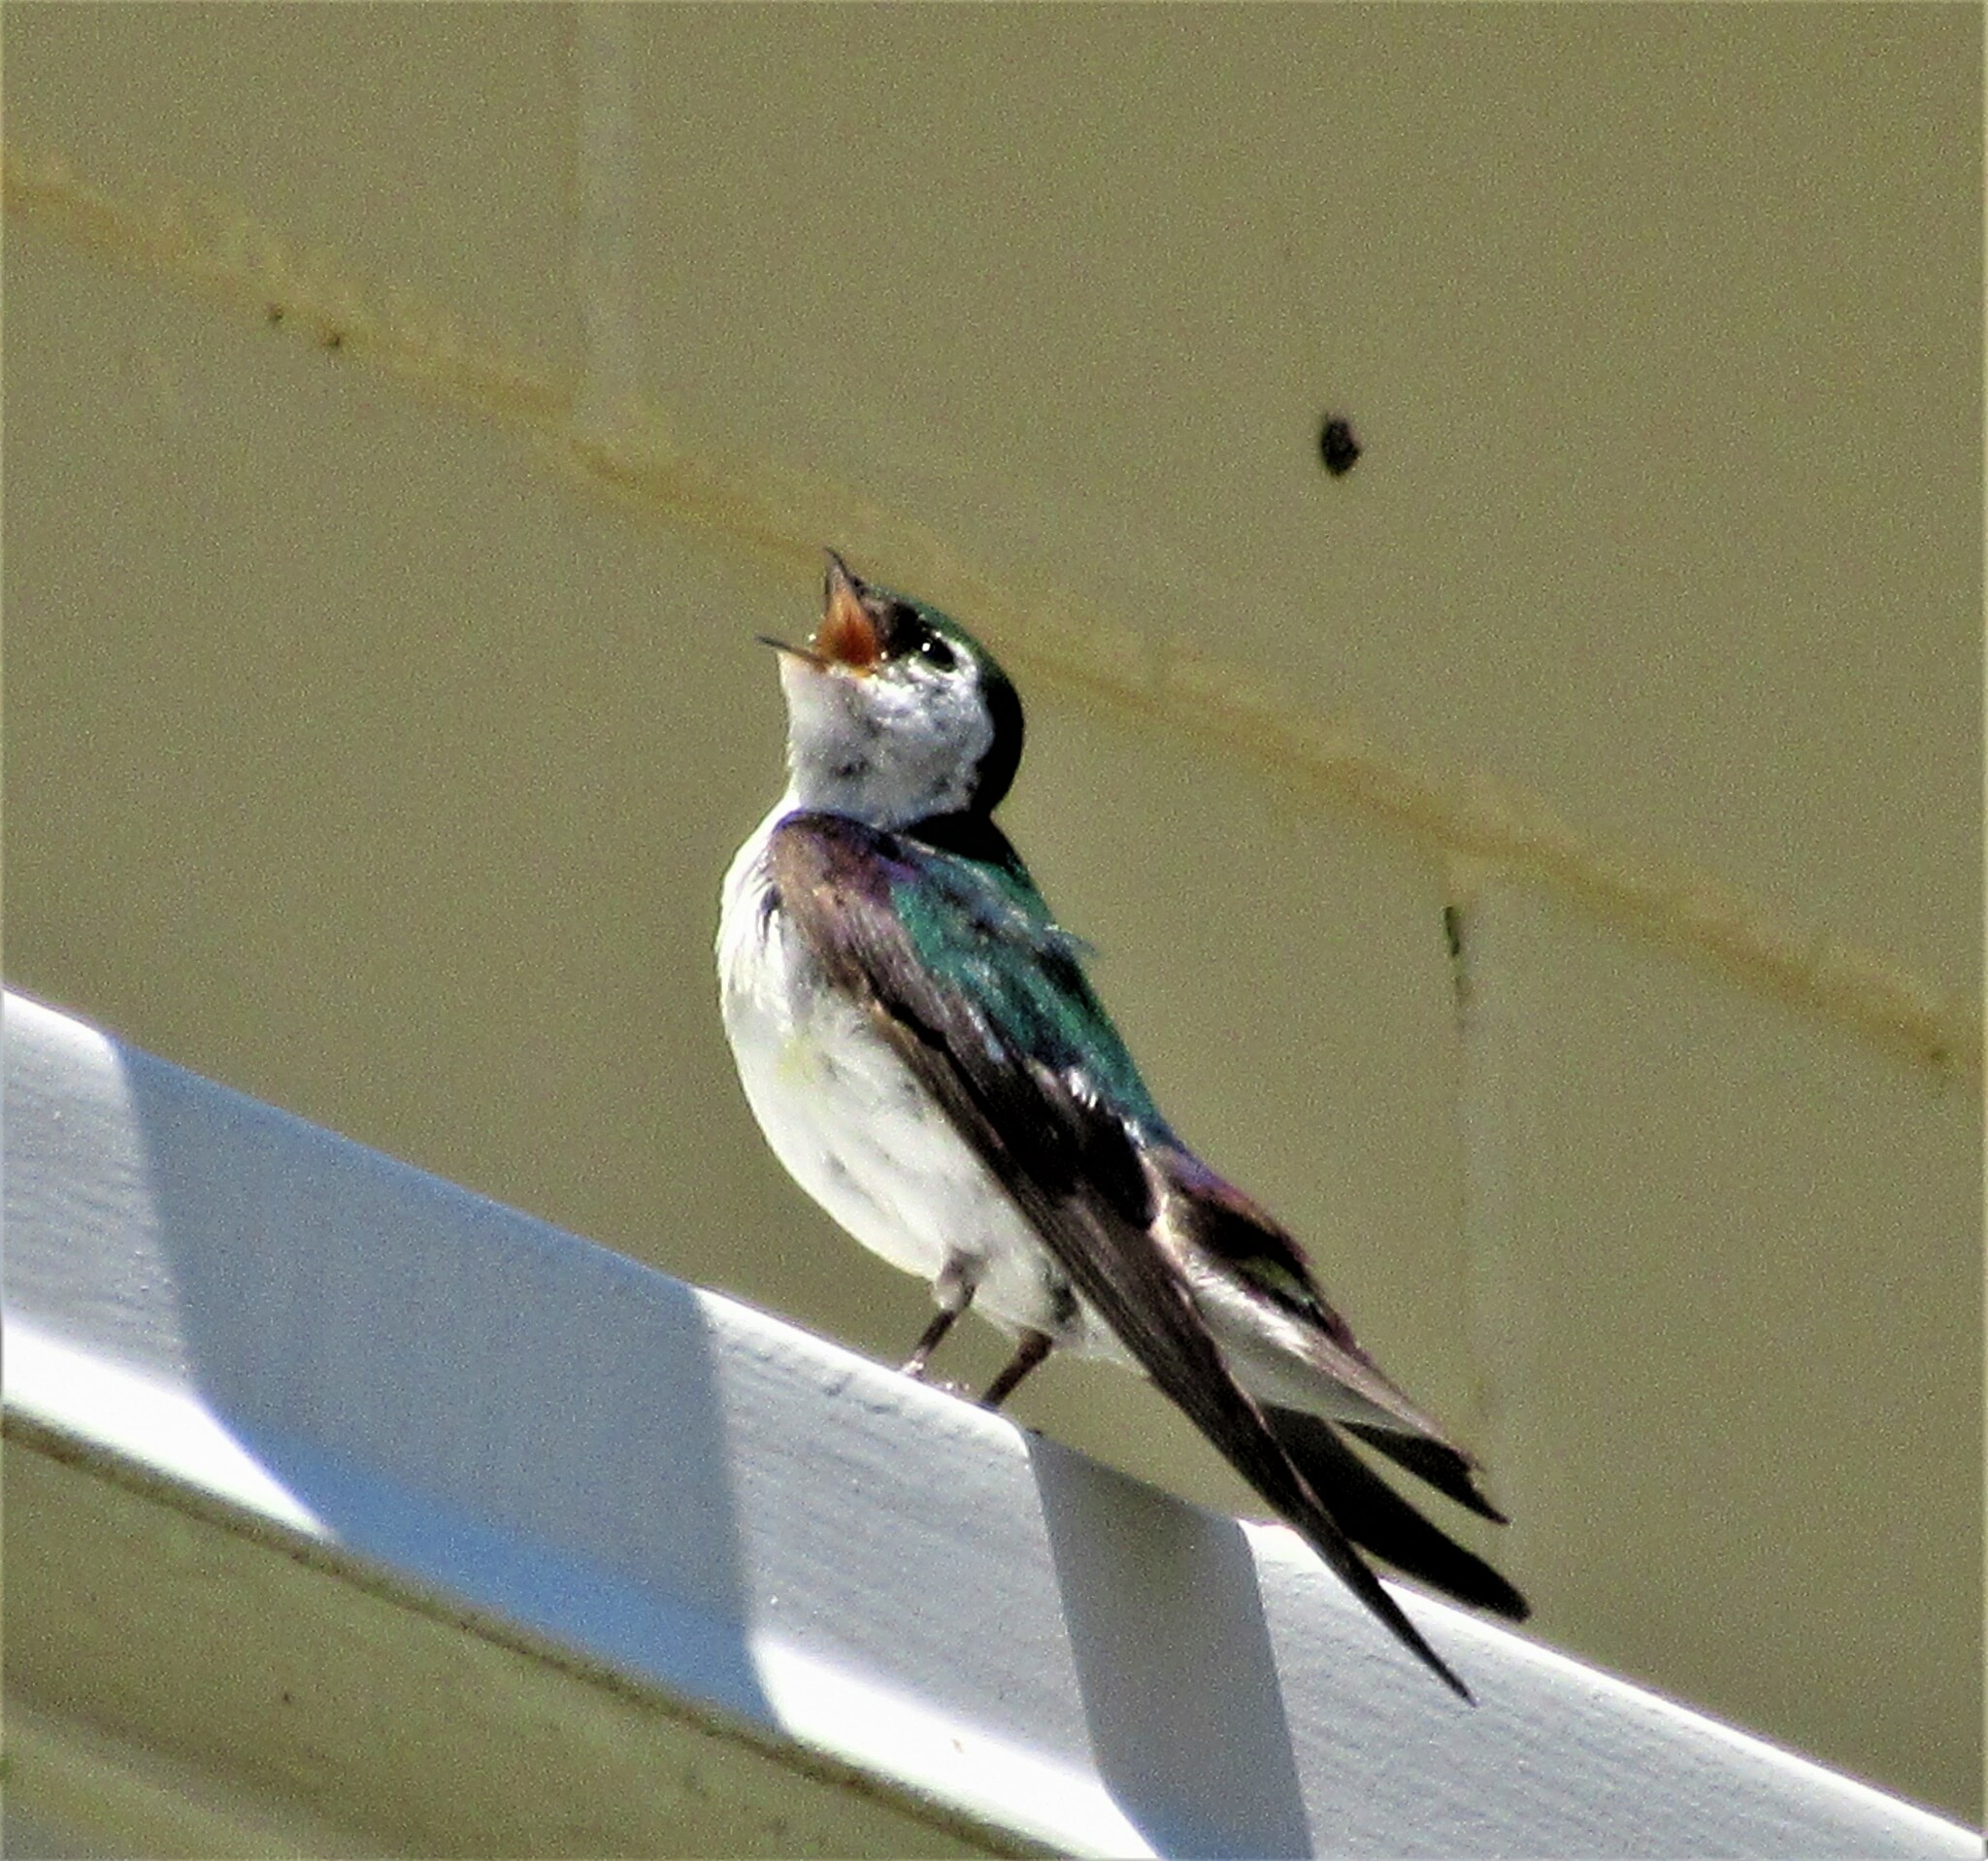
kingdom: Animalia
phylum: Chordata
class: Aves
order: Passeriformes
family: Hirundinidae
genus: Tachycineta
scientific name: Tachycineta thalassina
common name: Violet-green swallow
